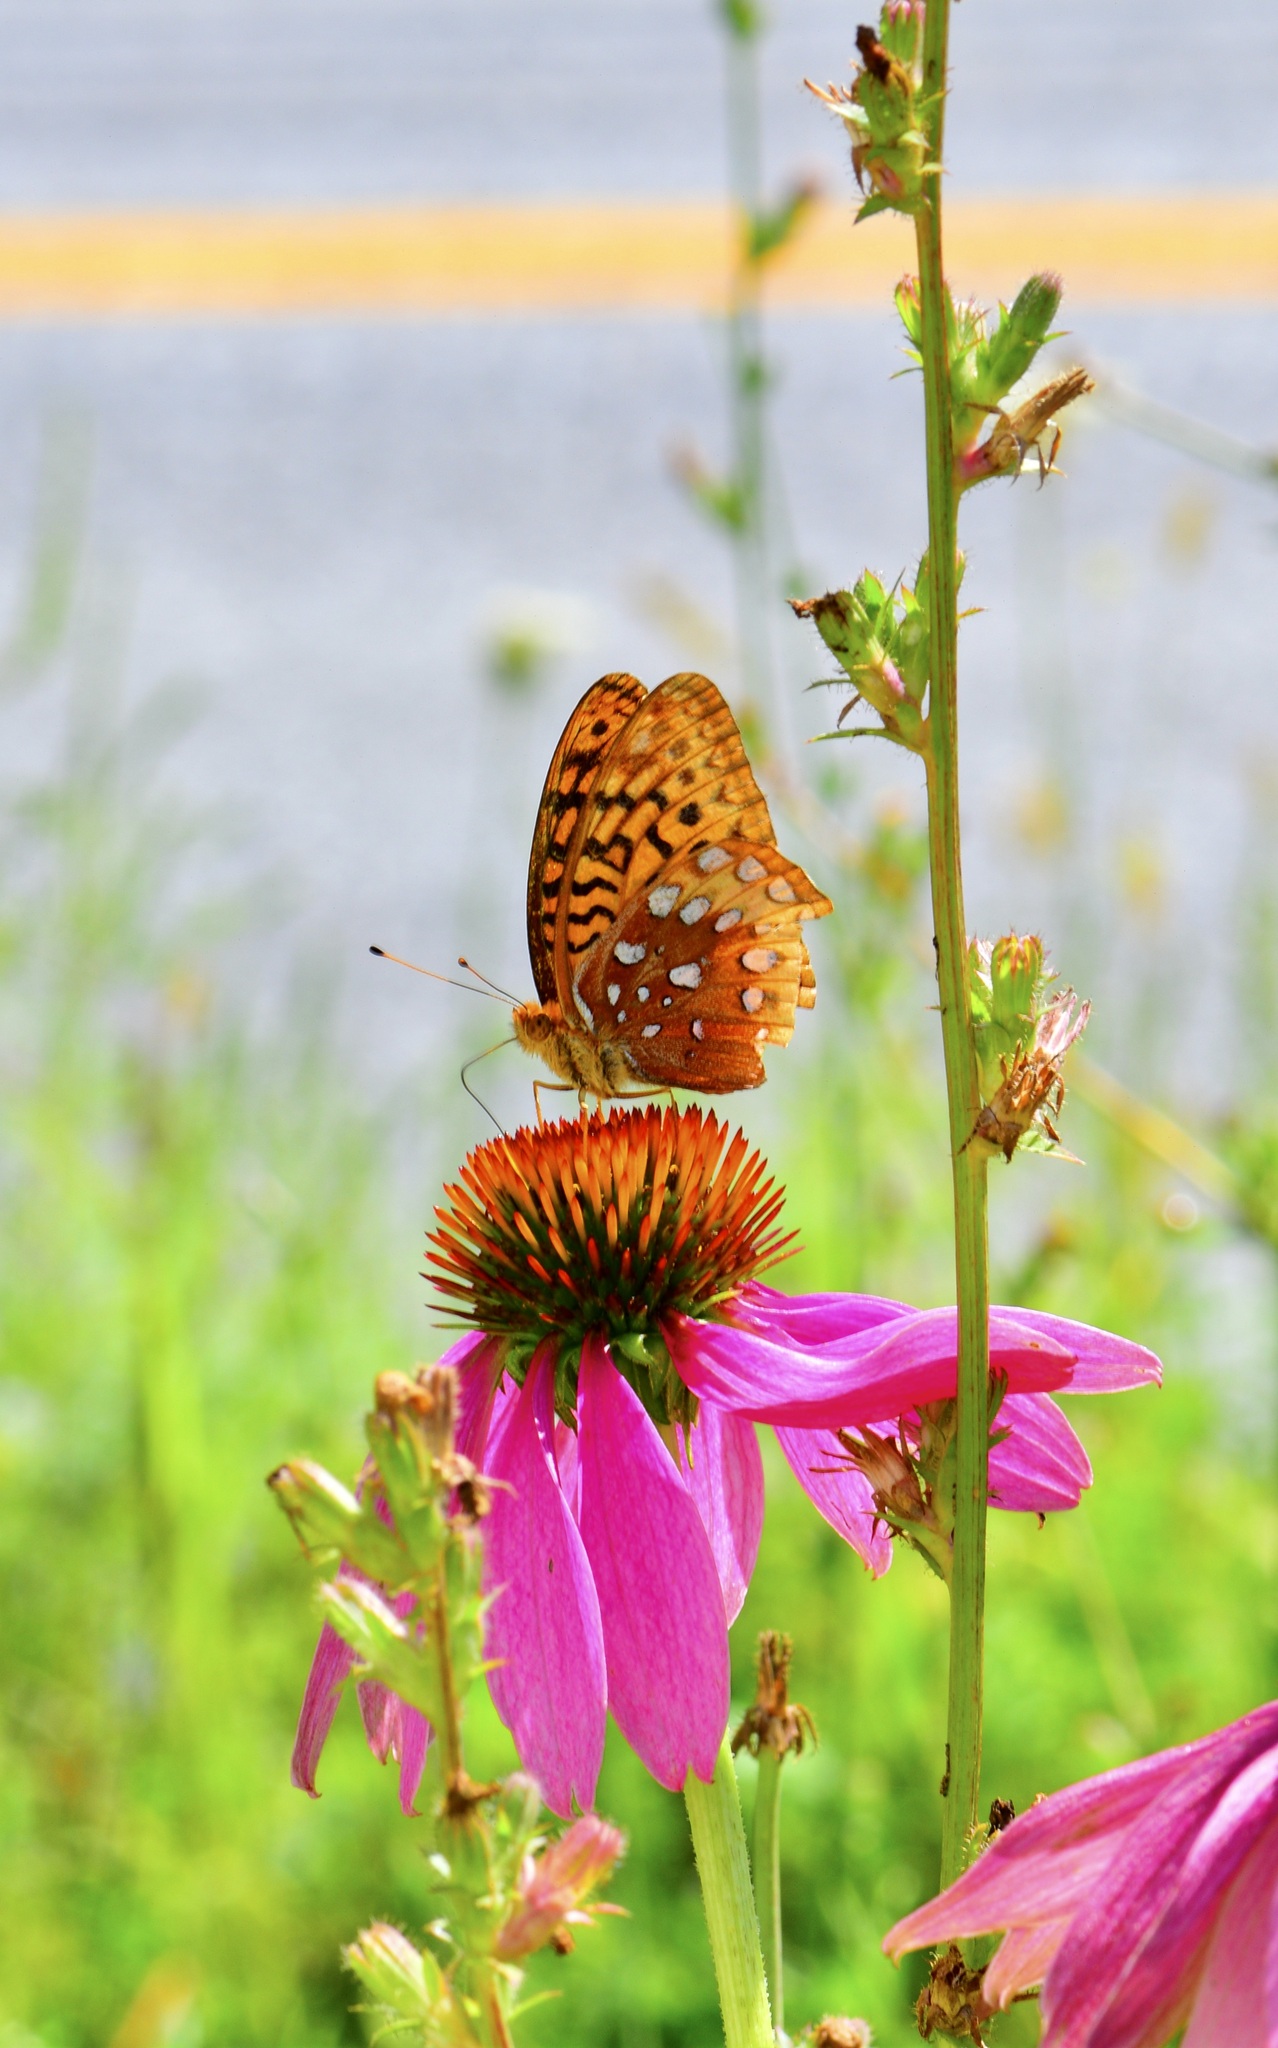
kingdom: Animalia
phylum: Arthropoda
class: Insecta
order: Lepidoptera
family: Nymphalidae
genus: Speyeria
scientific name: Speyeria cybele
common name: Great spangled fritillary
